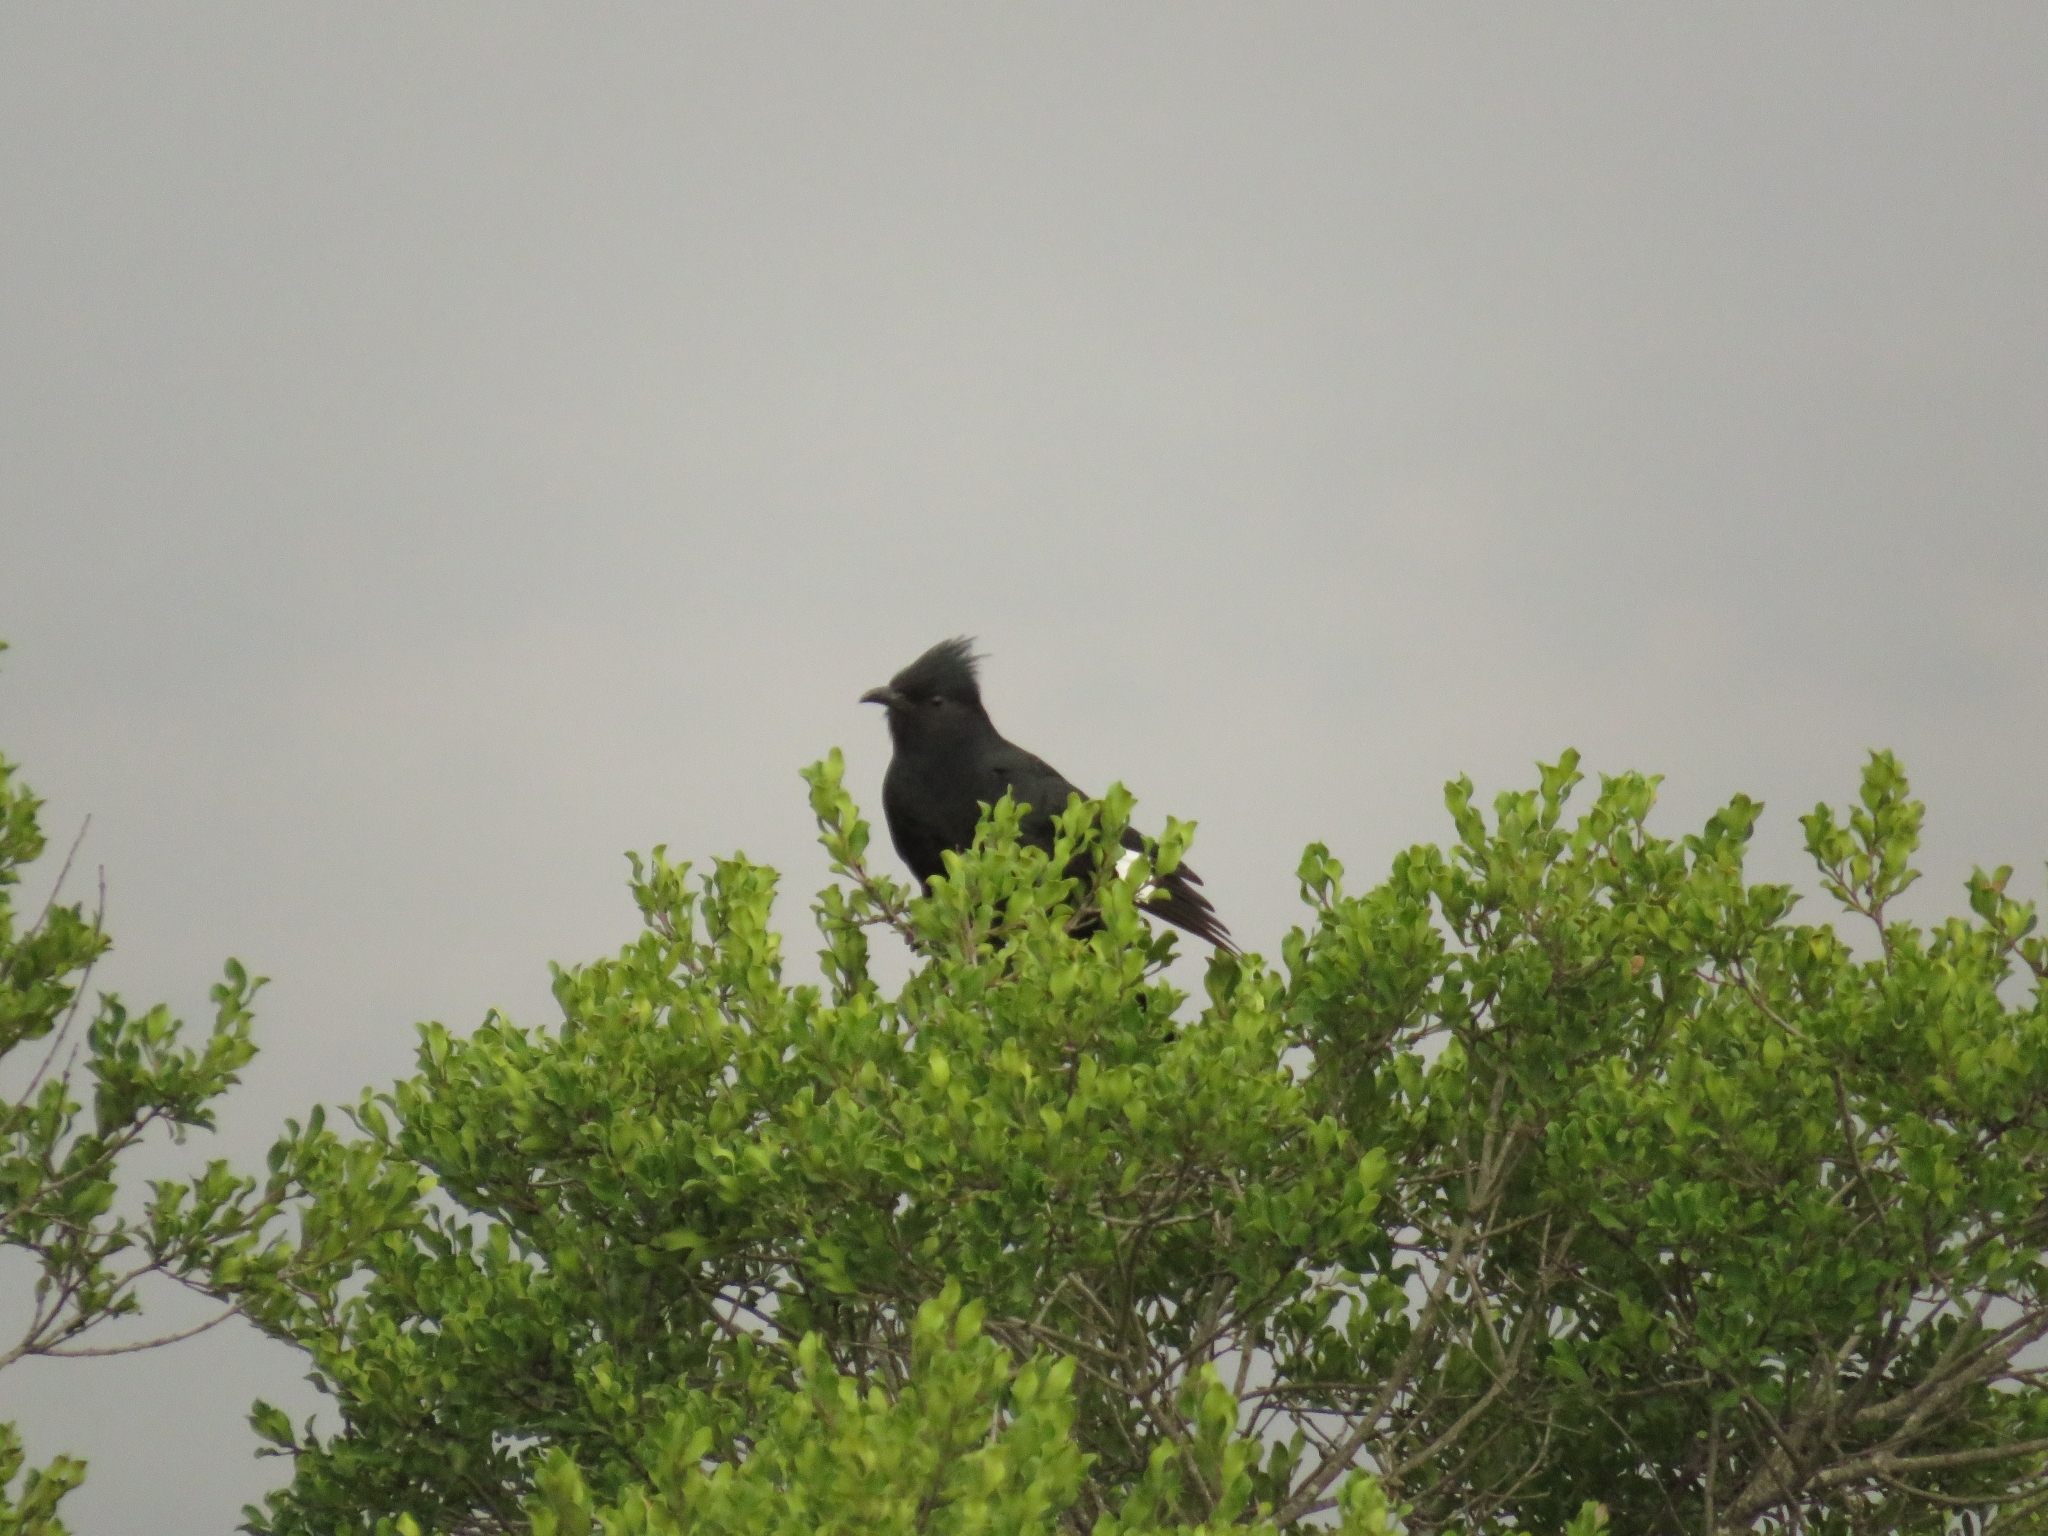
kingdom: Animalia
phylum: Chordata
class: Aves
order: Cuculiformes
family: Cuculidae
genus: Clamator
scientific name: Clamator jacobinus
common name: Jacobin cuckoo
